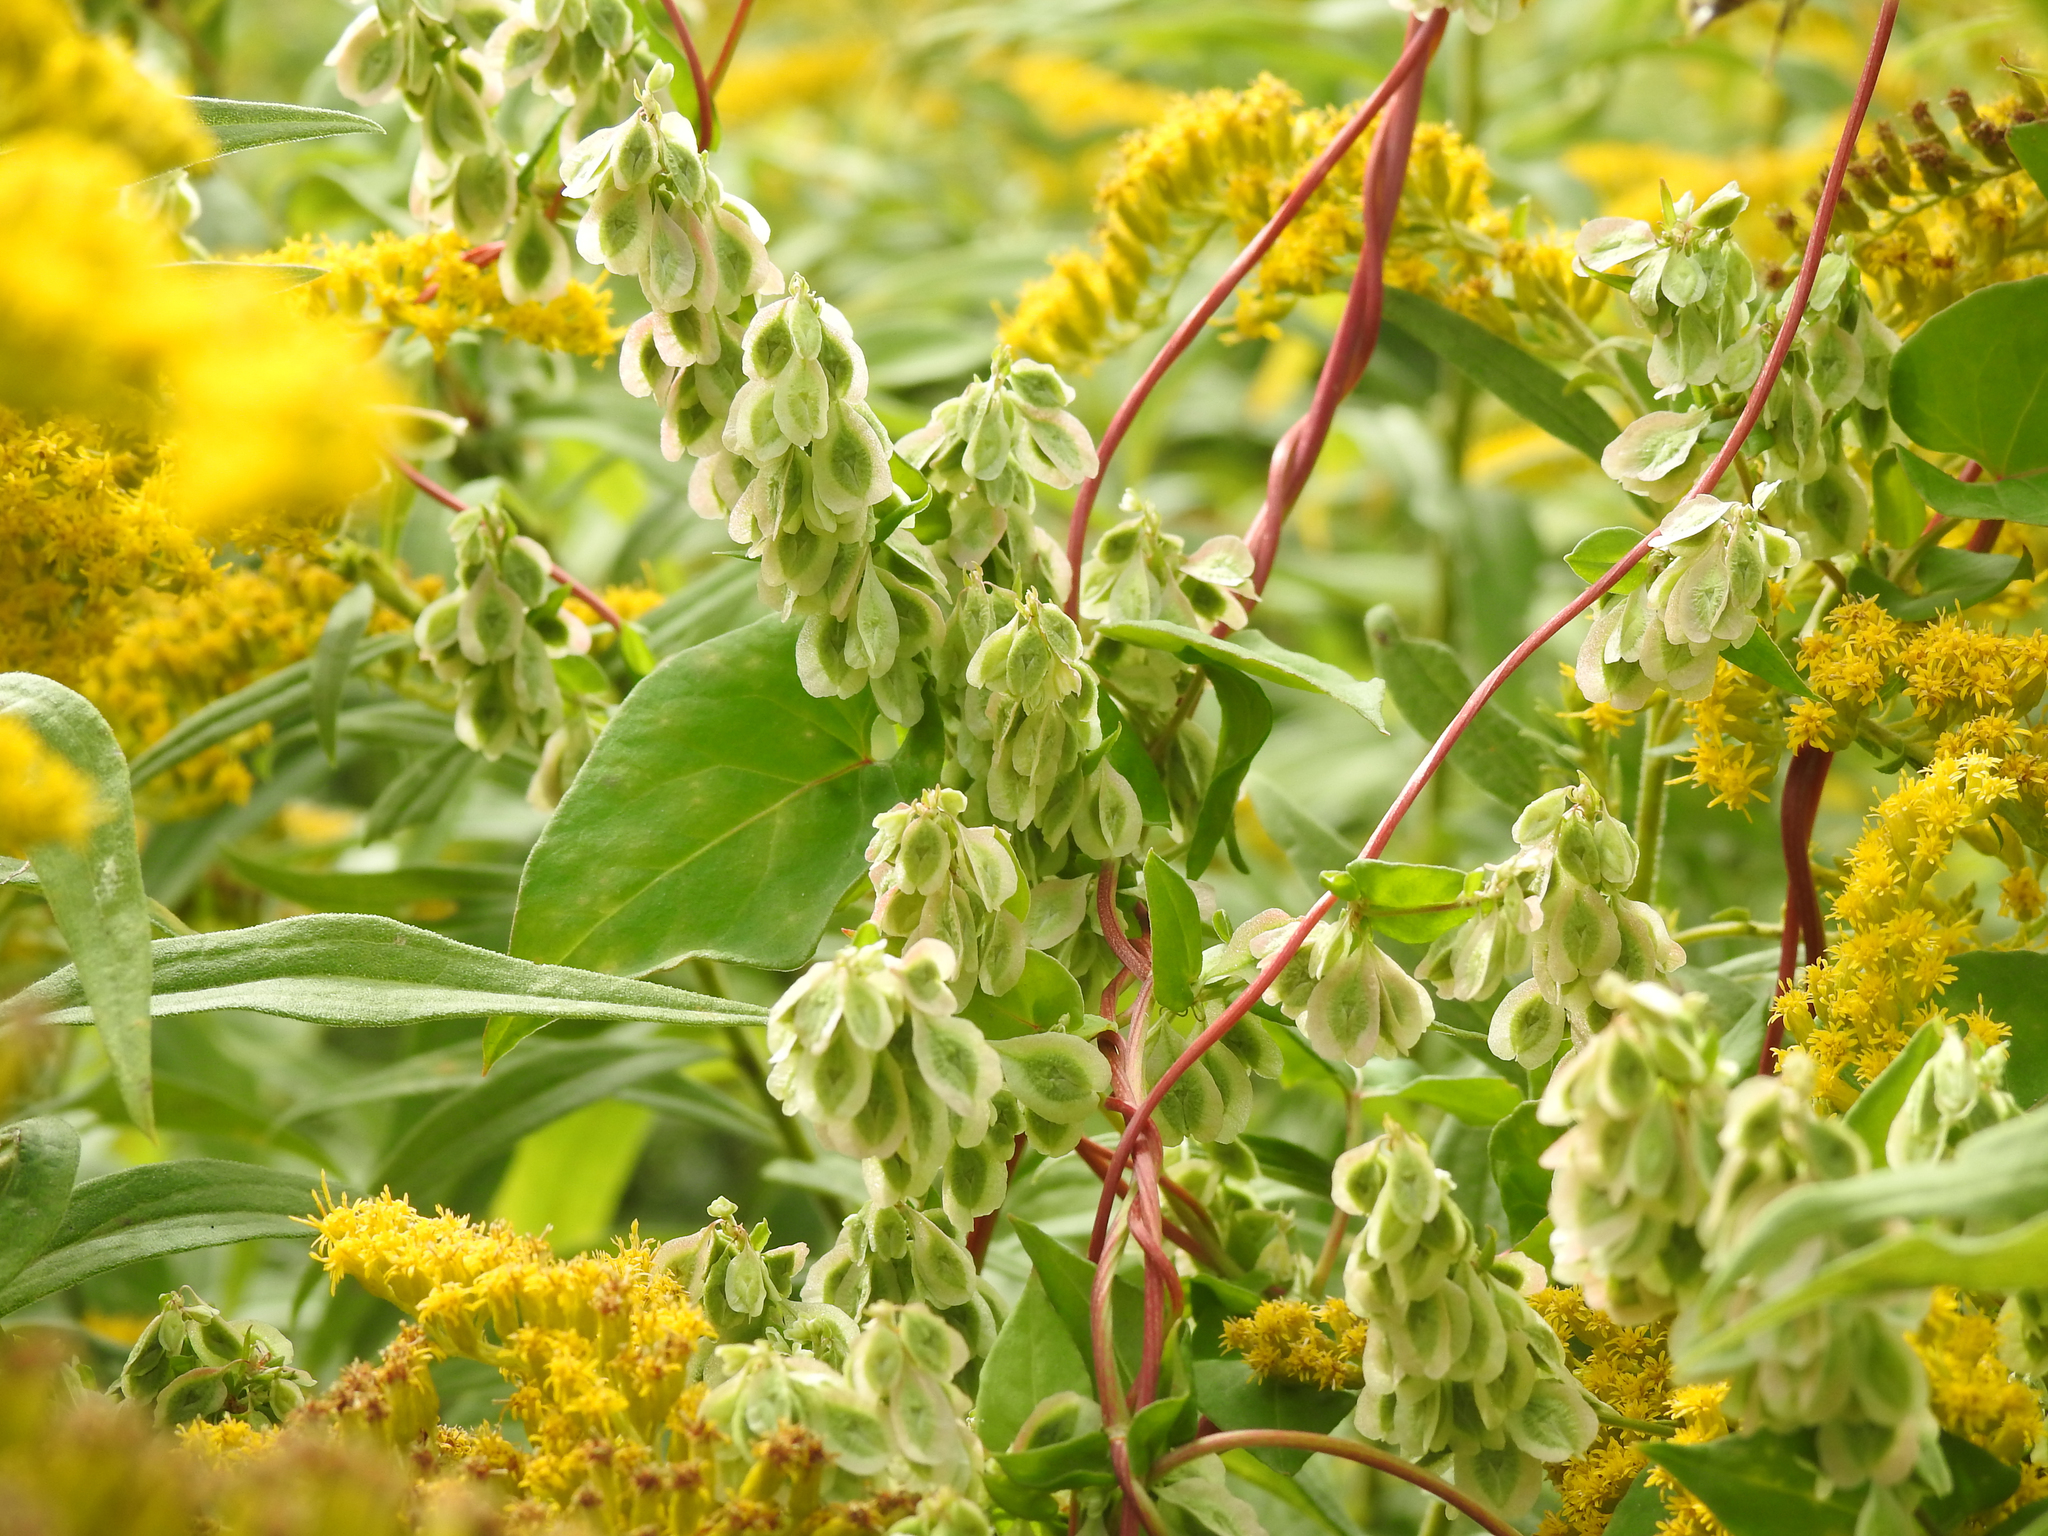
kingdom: Plantae
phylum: Tracheophyta
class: Magnoliopsida
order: Caryophyllales
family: Polygonaceae
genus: Fallopia
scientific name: Fallopia scandens
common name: Climbing false buckwheat
